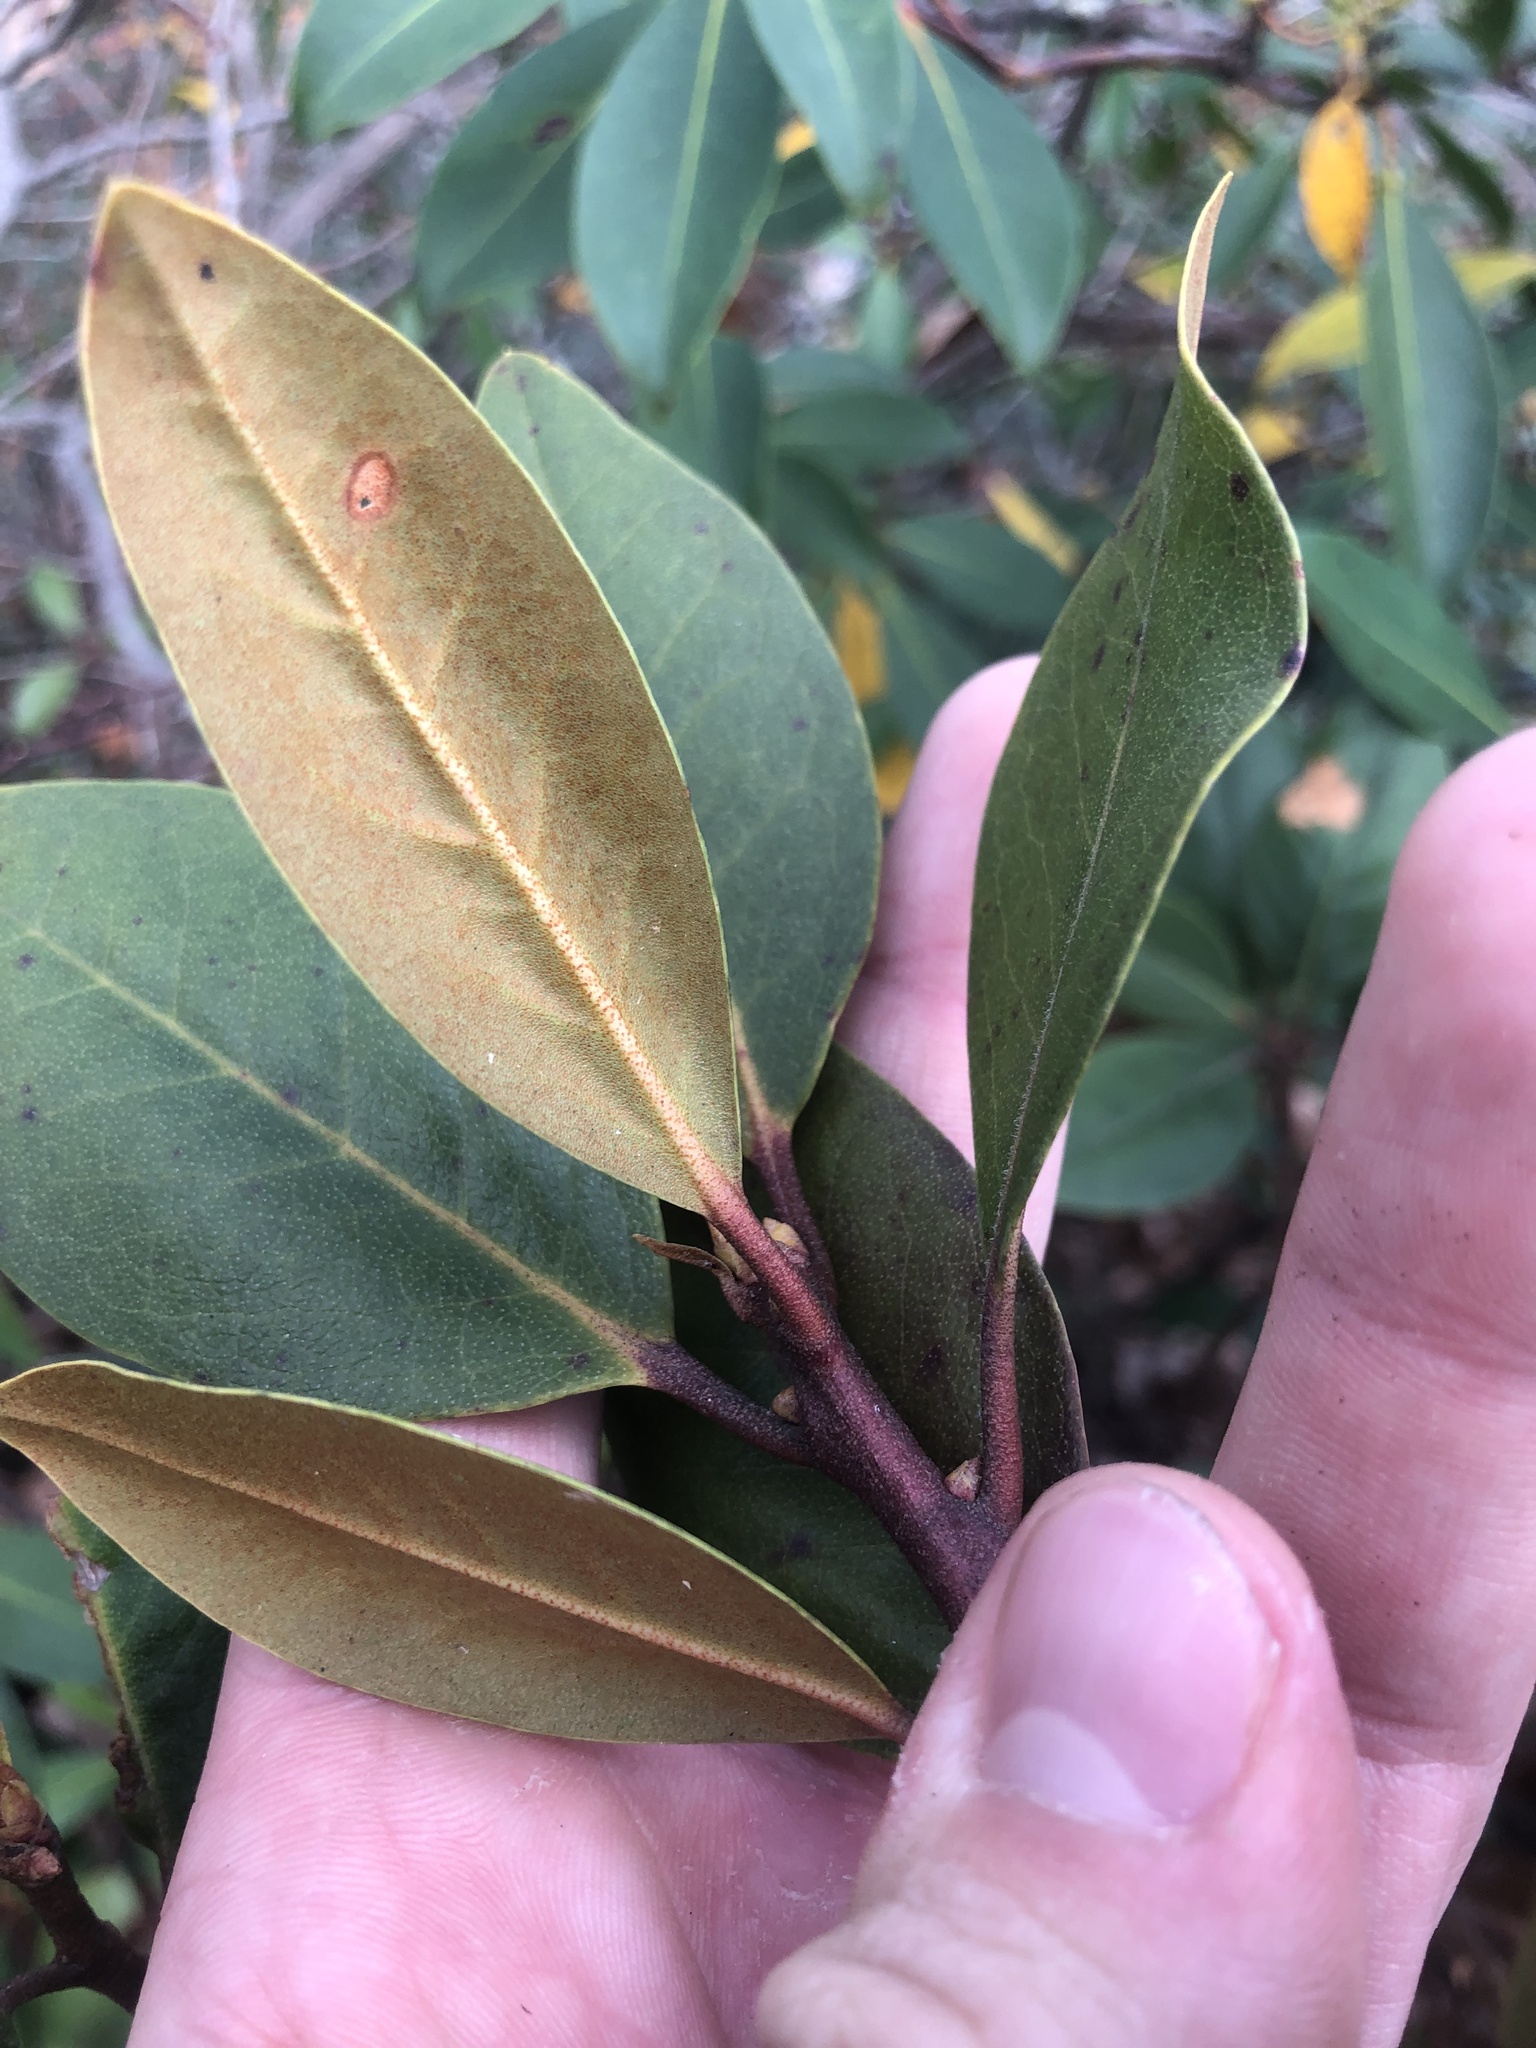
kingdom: Plantae
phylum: Tracheophyta
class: Magnoliopsida
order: Ericales
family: Ericaceae
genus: Rhododendron
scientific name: Rhododendron minus
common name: Piedmont rhododendron
